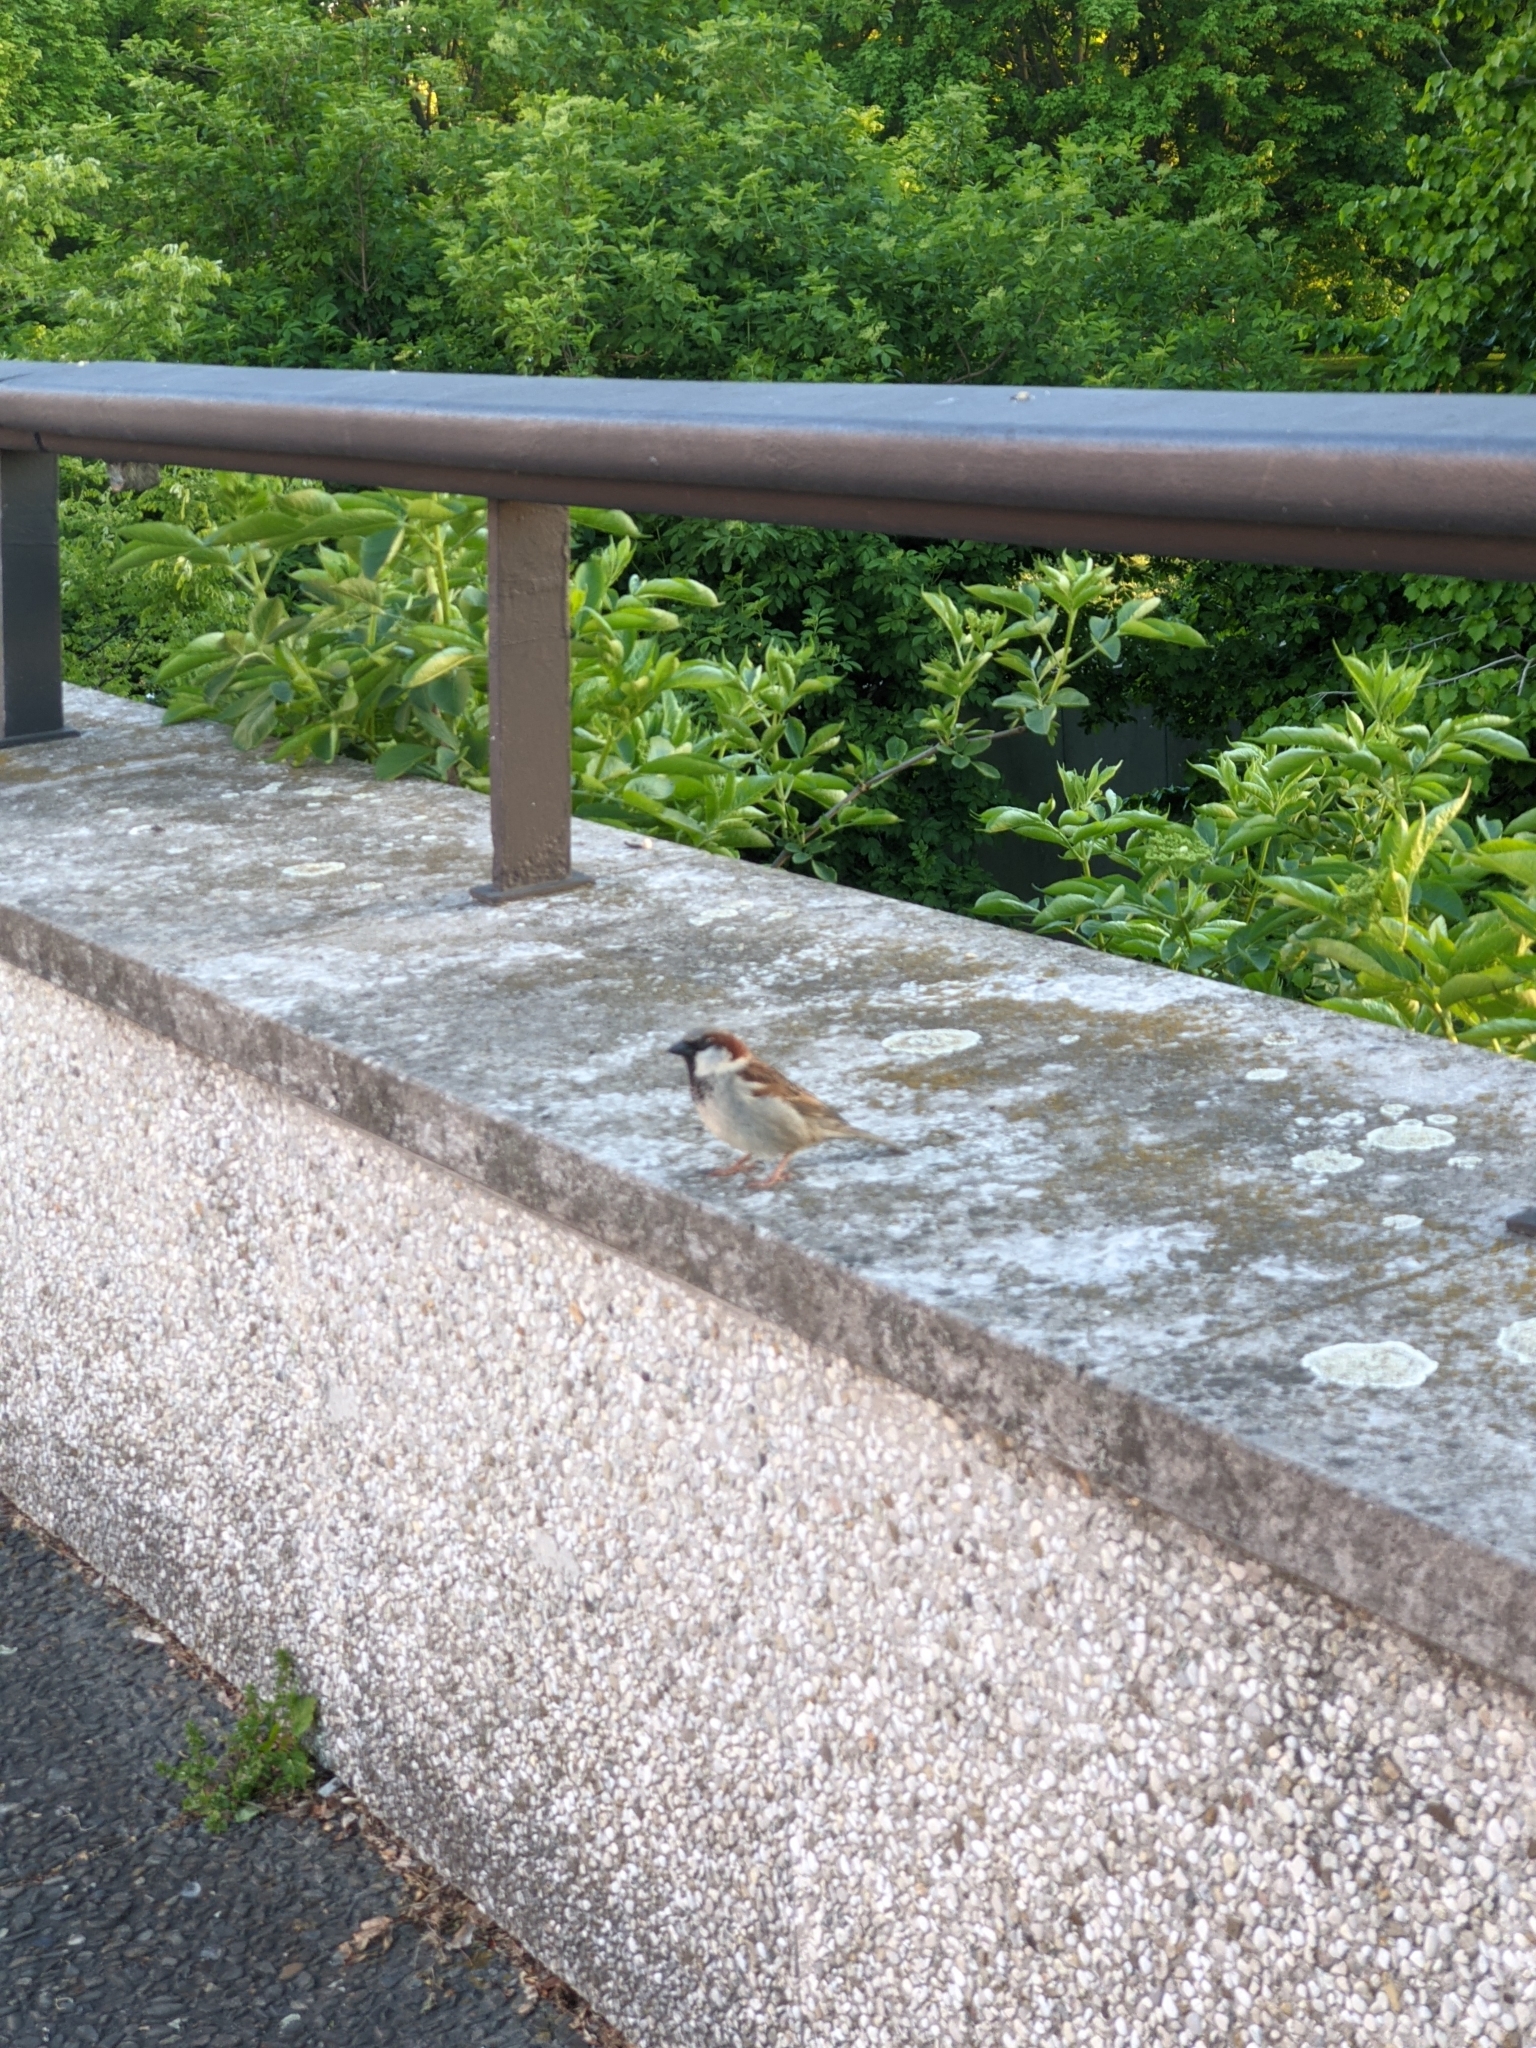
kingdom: Animalia
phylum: Chordata
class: Aves
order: Passeriformes
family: Passeridae
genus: Passer
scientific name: Passer domesticus
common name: House sparrow
